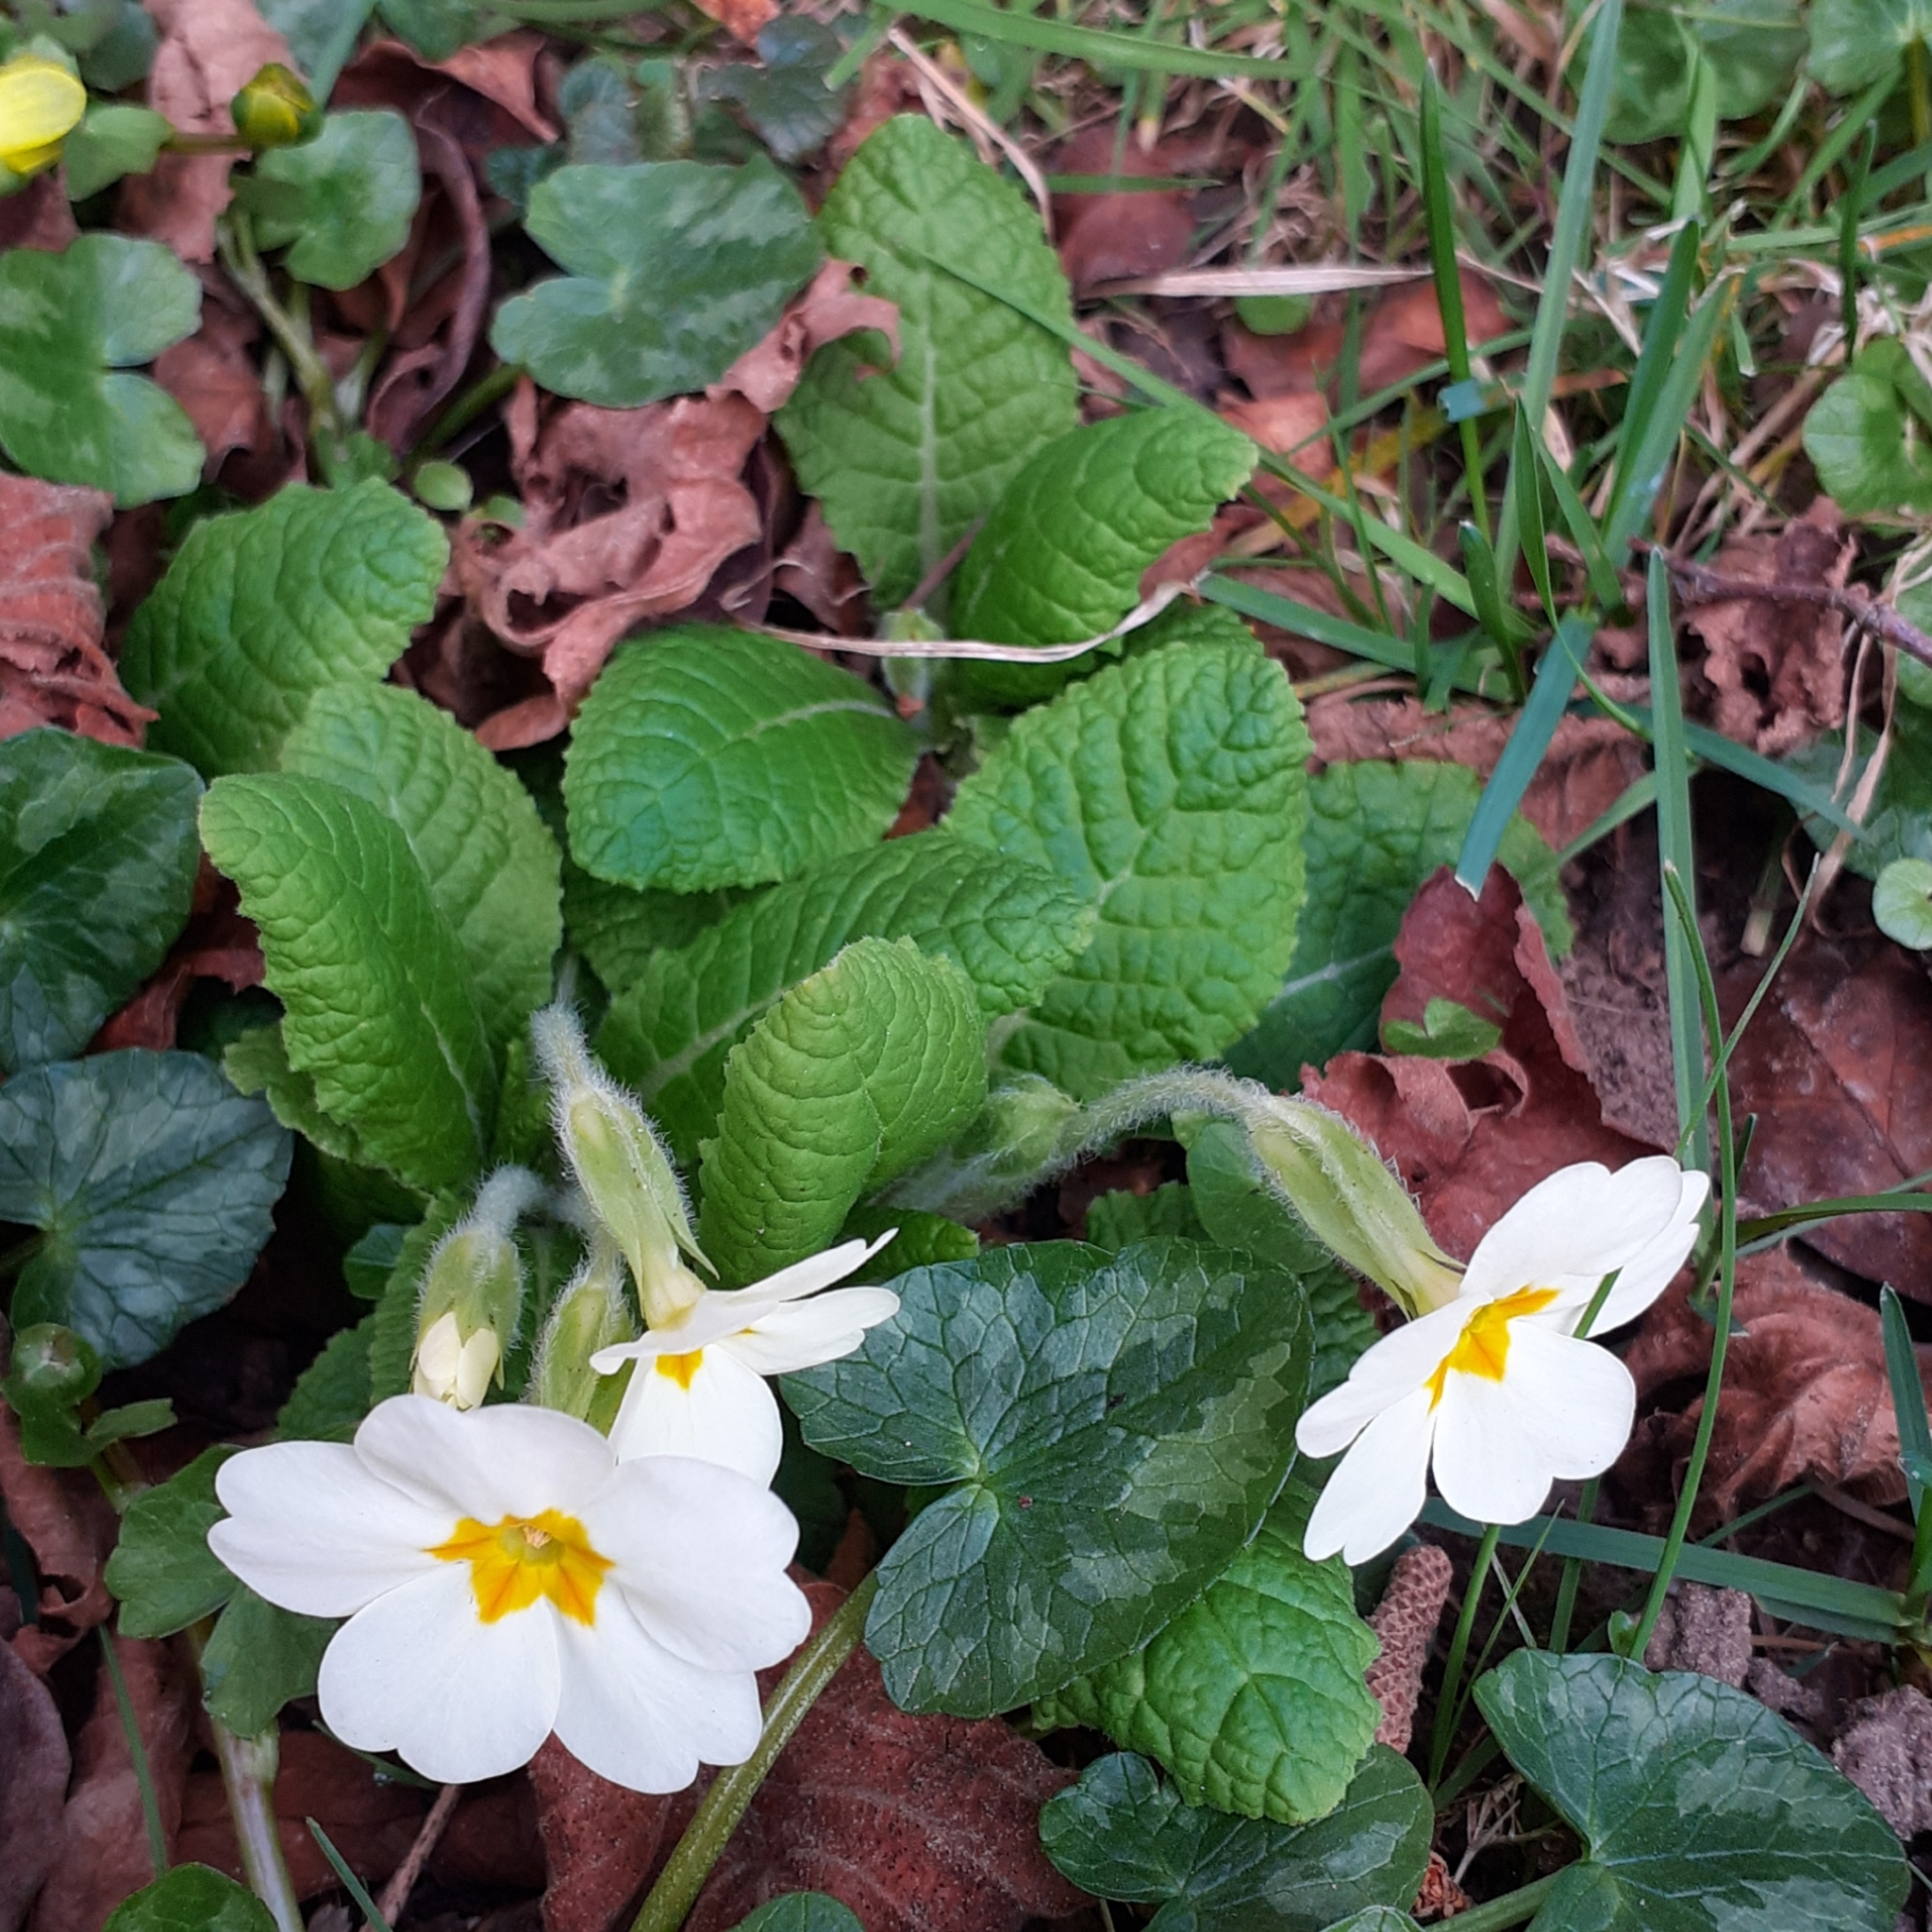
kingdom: Plantae
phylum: Tracheophyta
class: Magnoliopsida
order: Ericales
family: Primulaceae
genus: Primula
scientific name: Primula vulgaris
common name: Primrose
